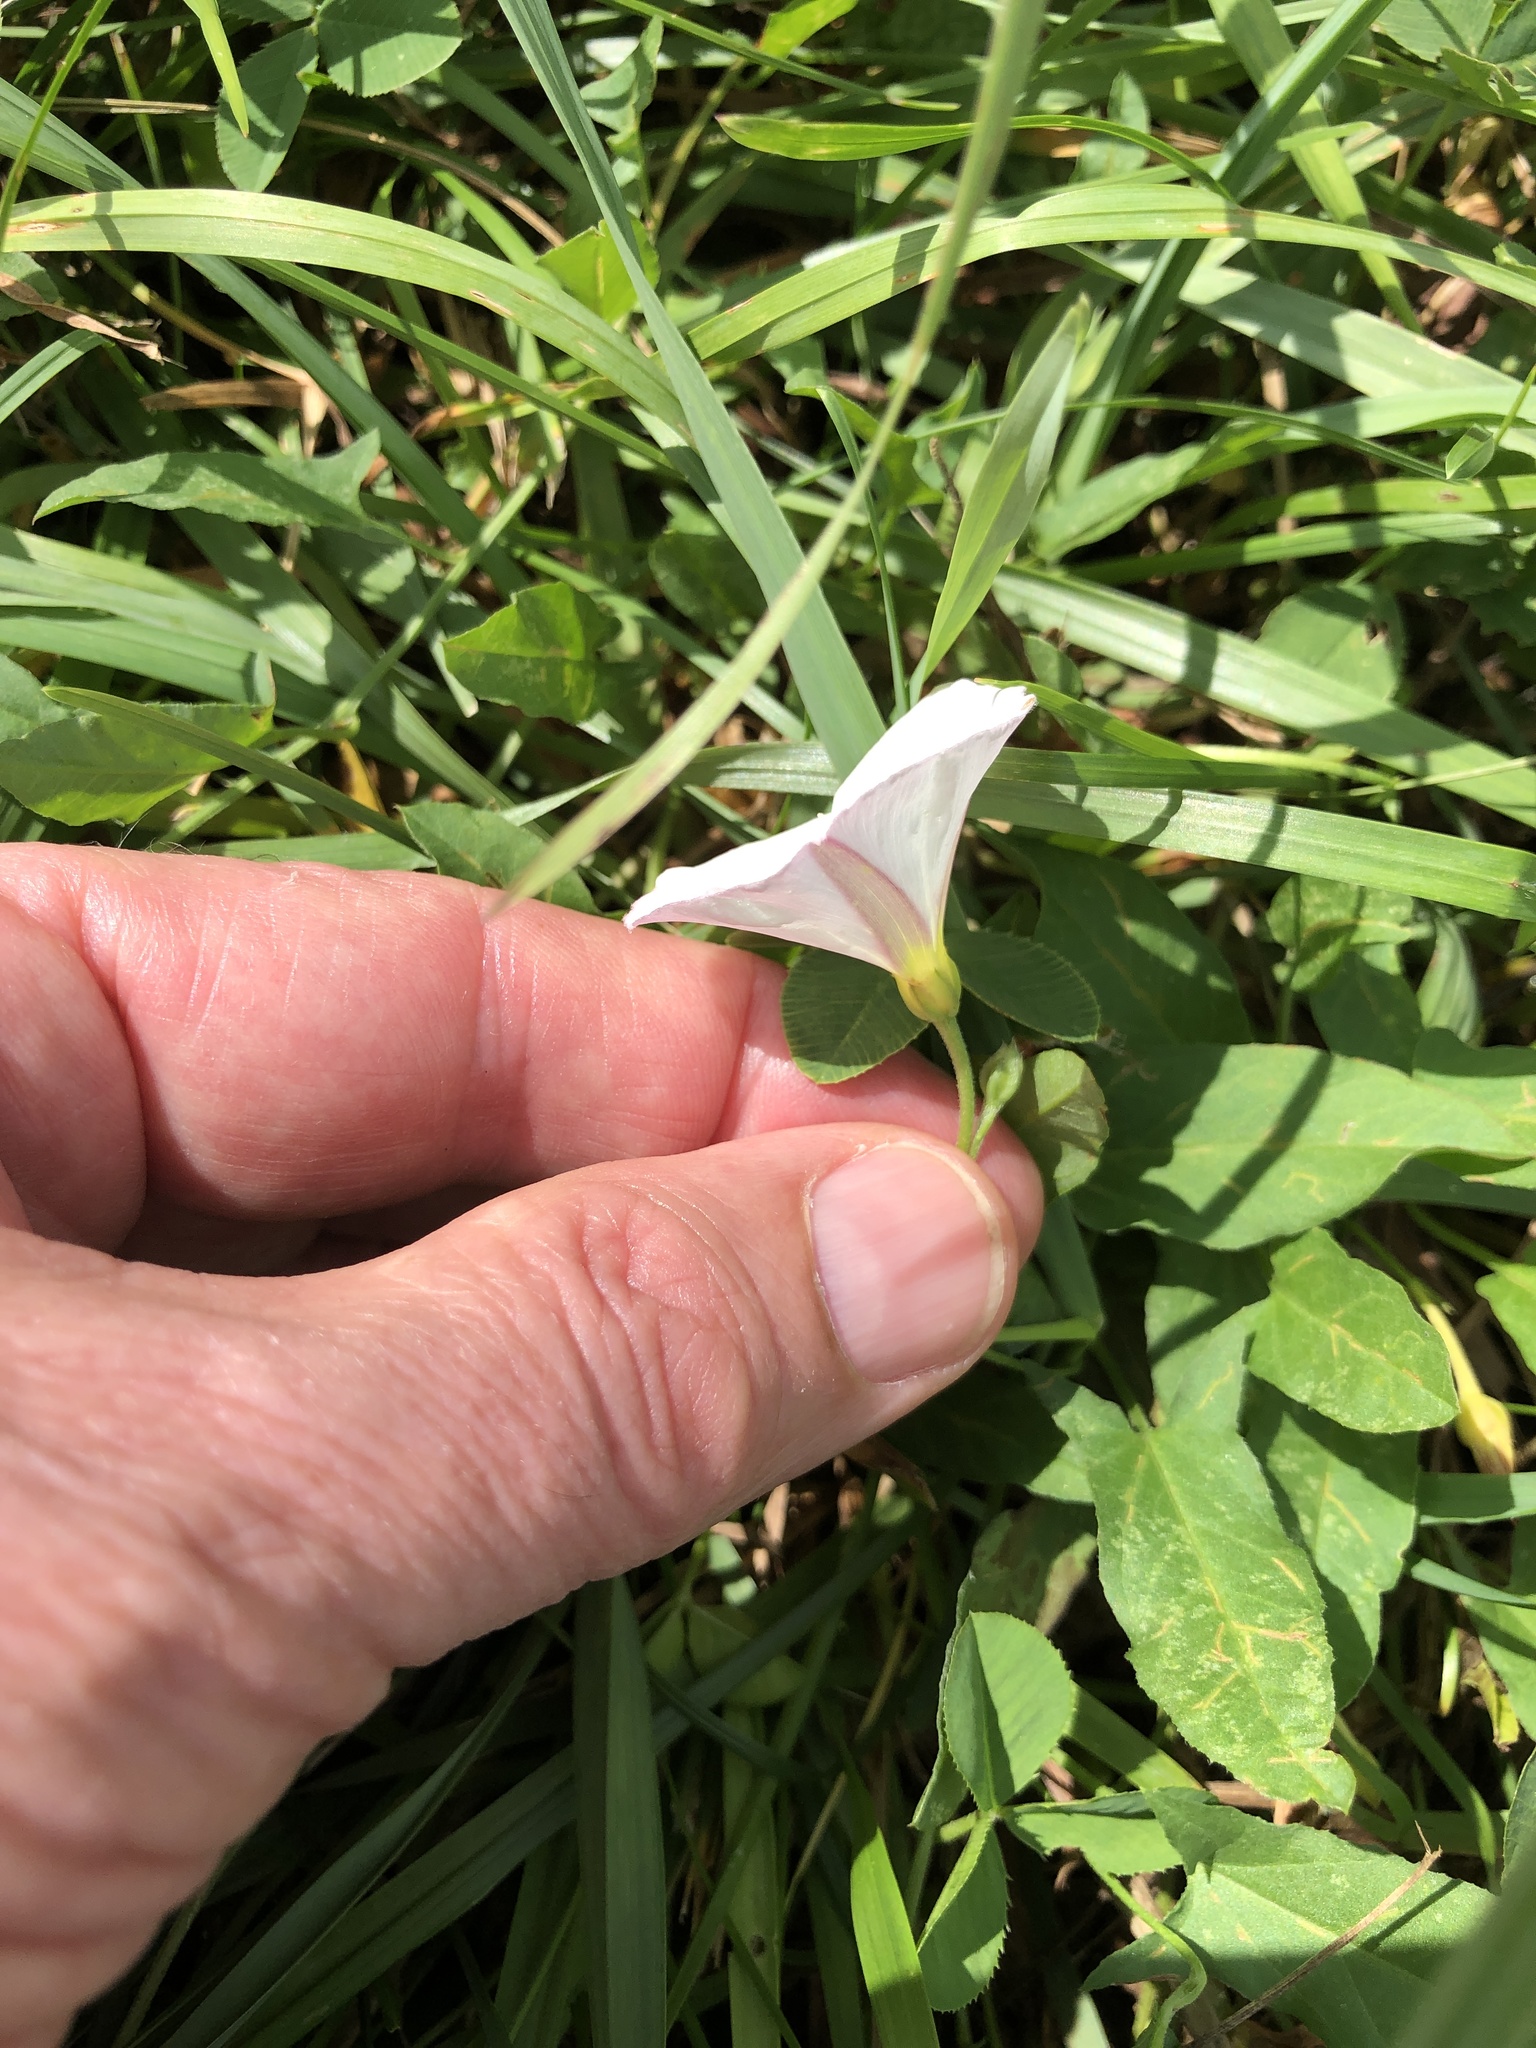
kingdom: Plantae
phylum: Tracheophyta
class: Magnoliopsida
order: Solanales
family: Convolvulaceae
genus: Convolvulus
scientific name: Convolvulus arvensis
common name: Field bindweed
